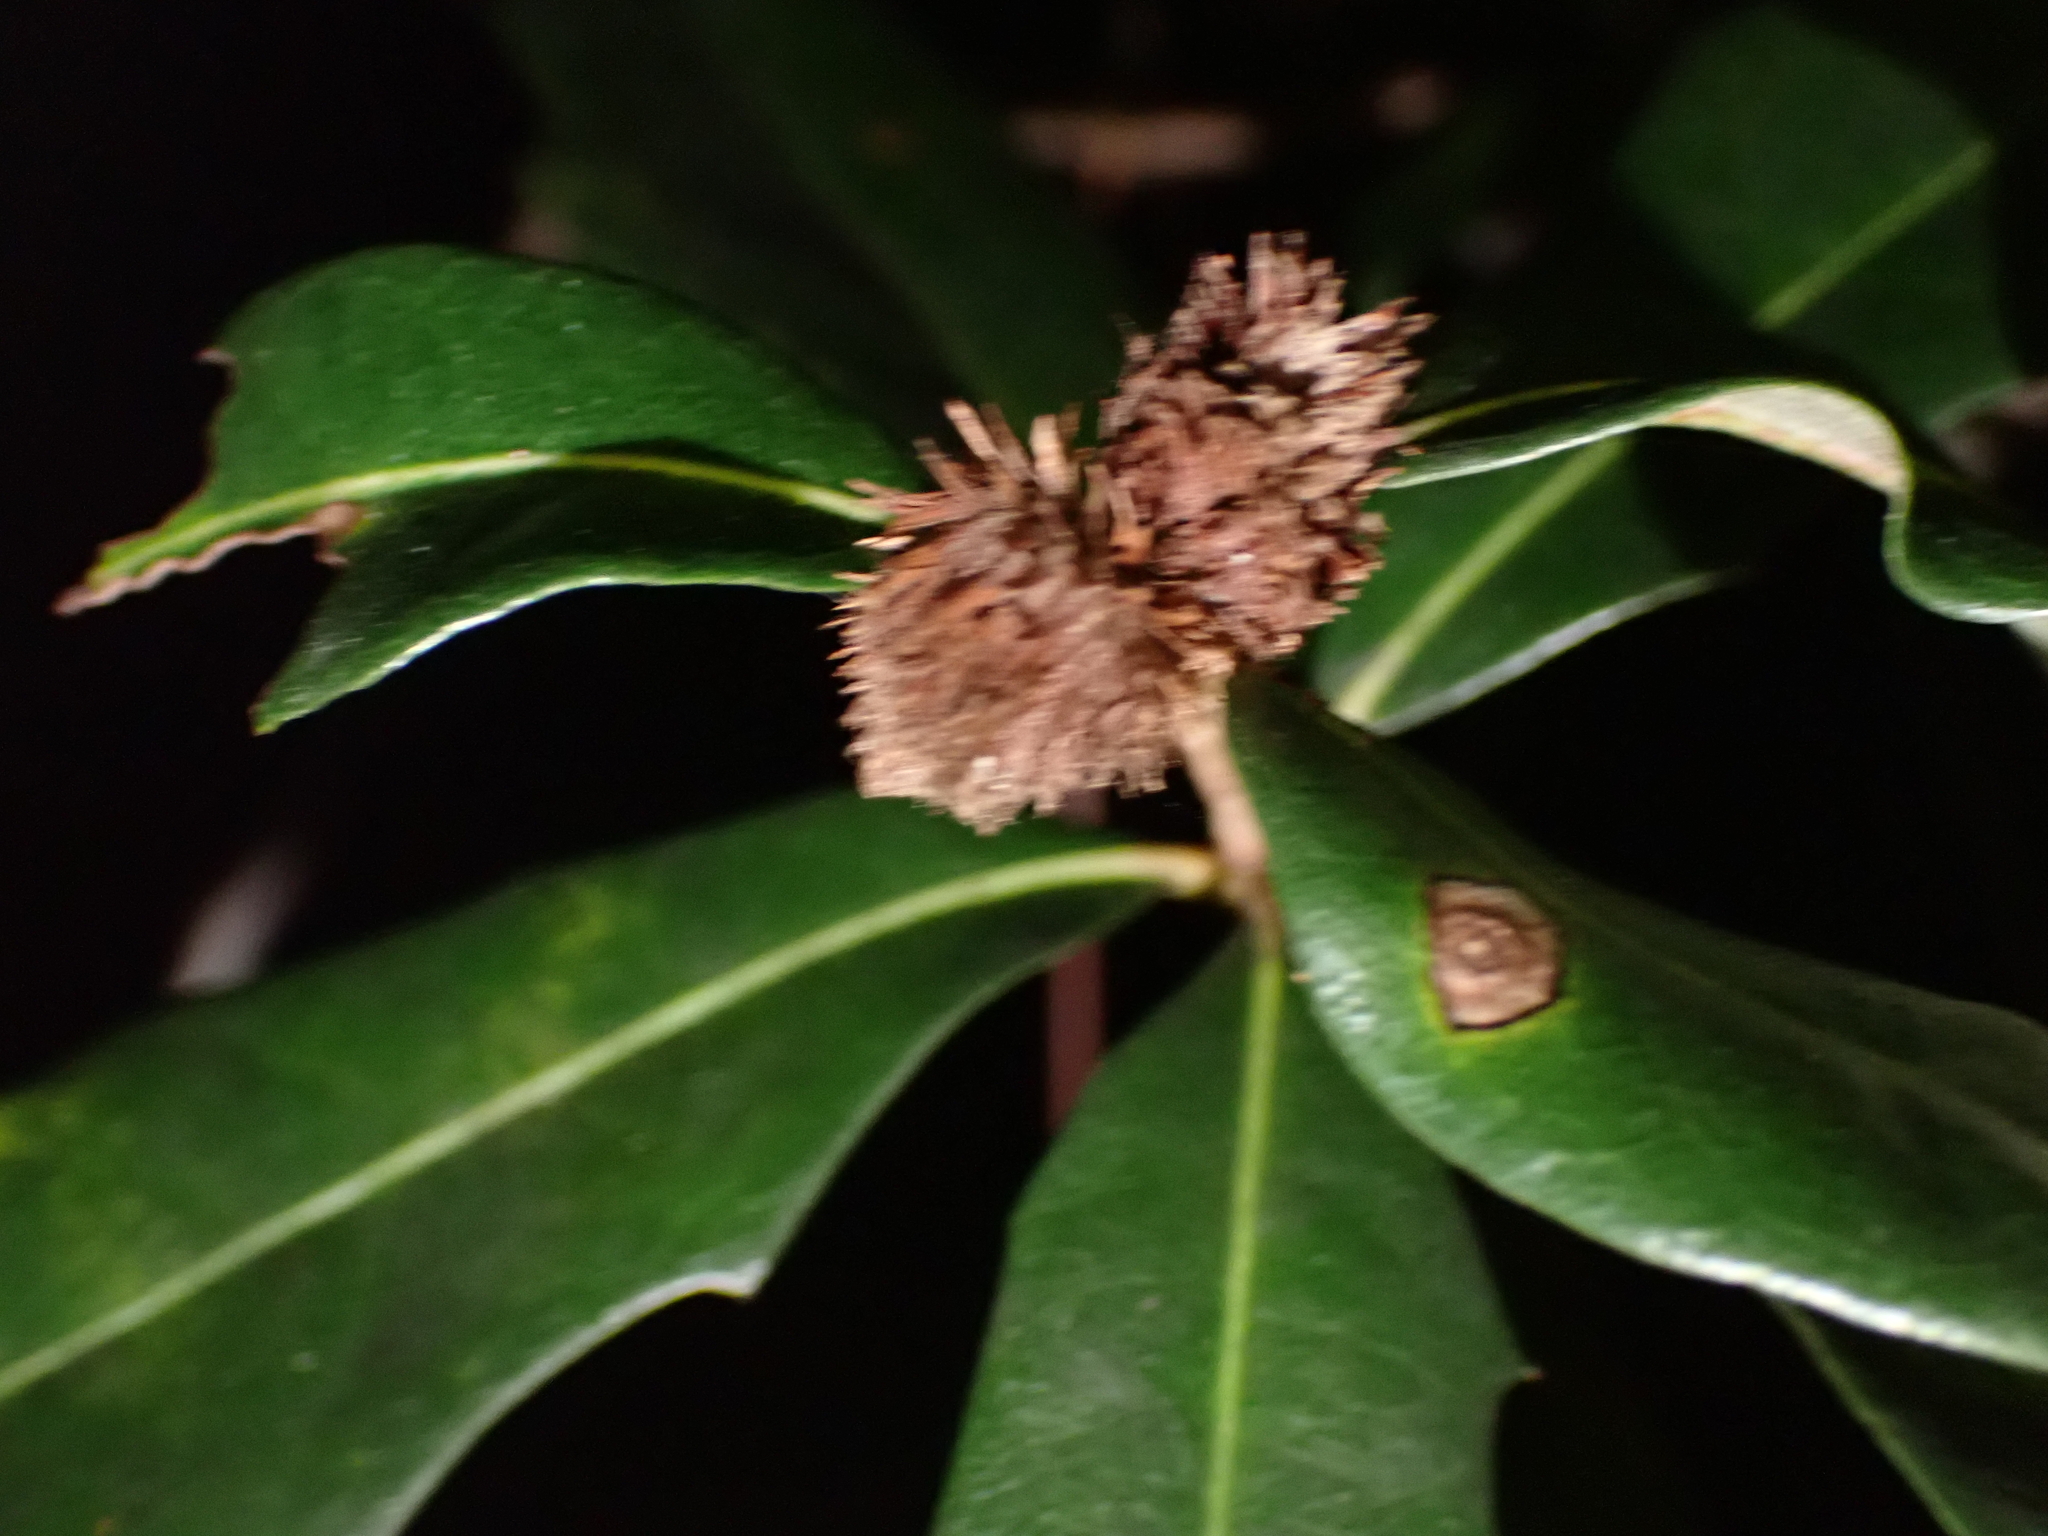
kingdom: Animalia
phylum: Arthropoda
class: Insecta
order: Hymenoptera
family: Cynipidae
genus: Andricus
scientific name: Andricus quercusfoliatus
